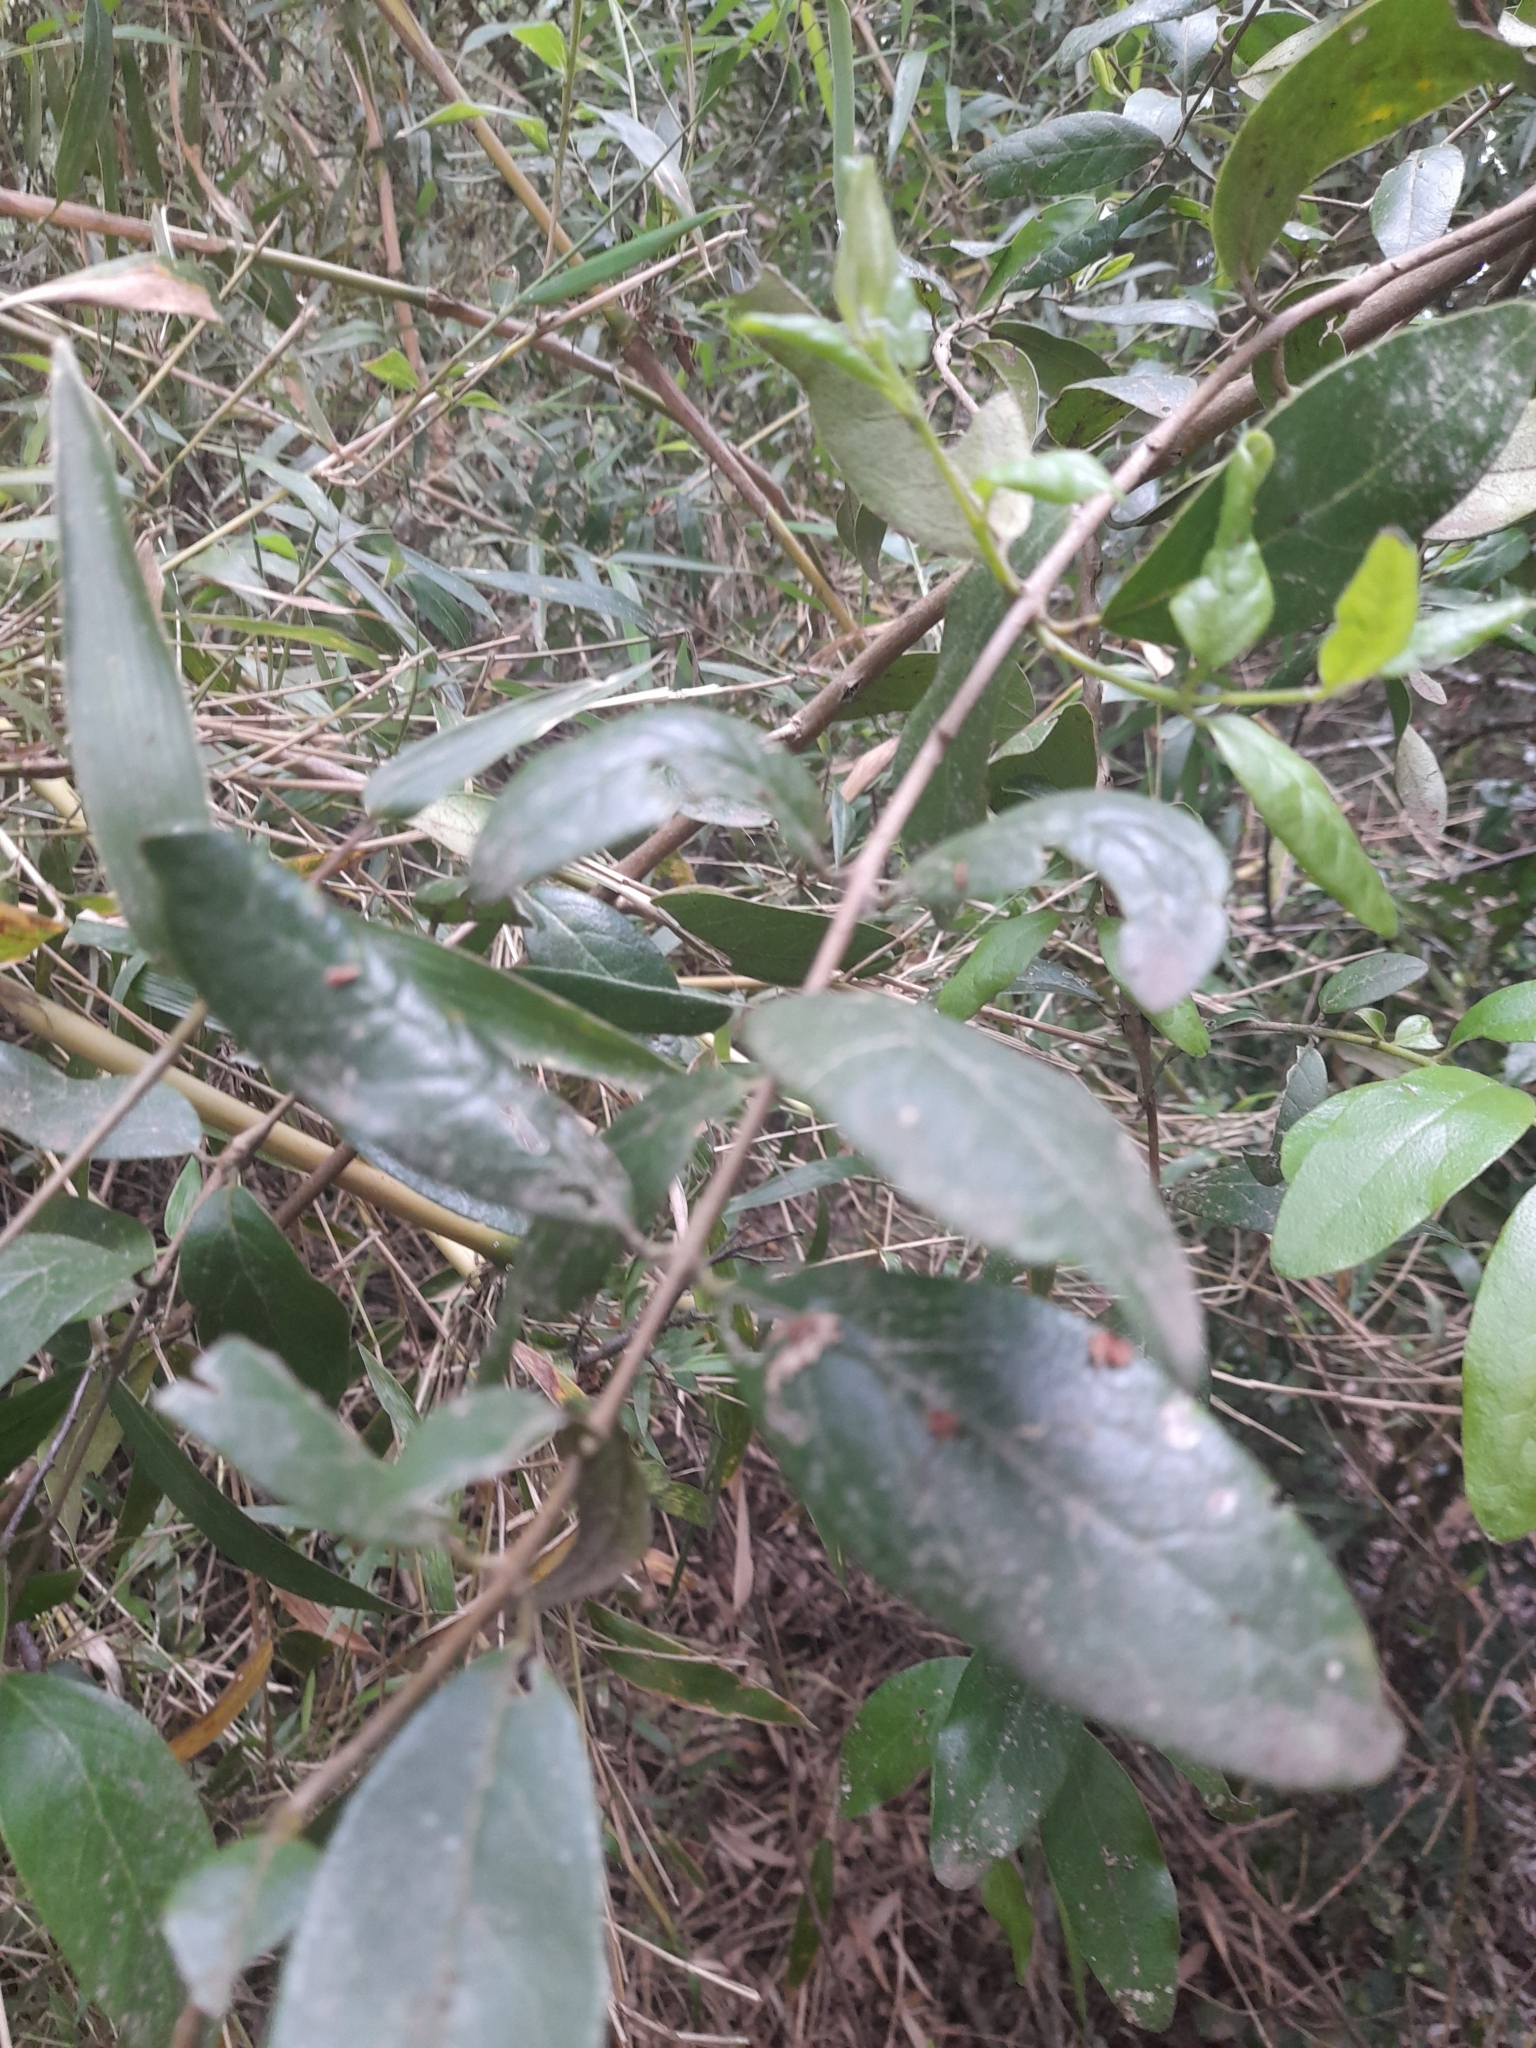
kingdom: Plantae
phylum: Tracheophyta
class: Magnoliopsida
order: Laurales
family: Monimiaceae
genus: Peumus
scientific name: Peumus boldus
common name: Boldo
